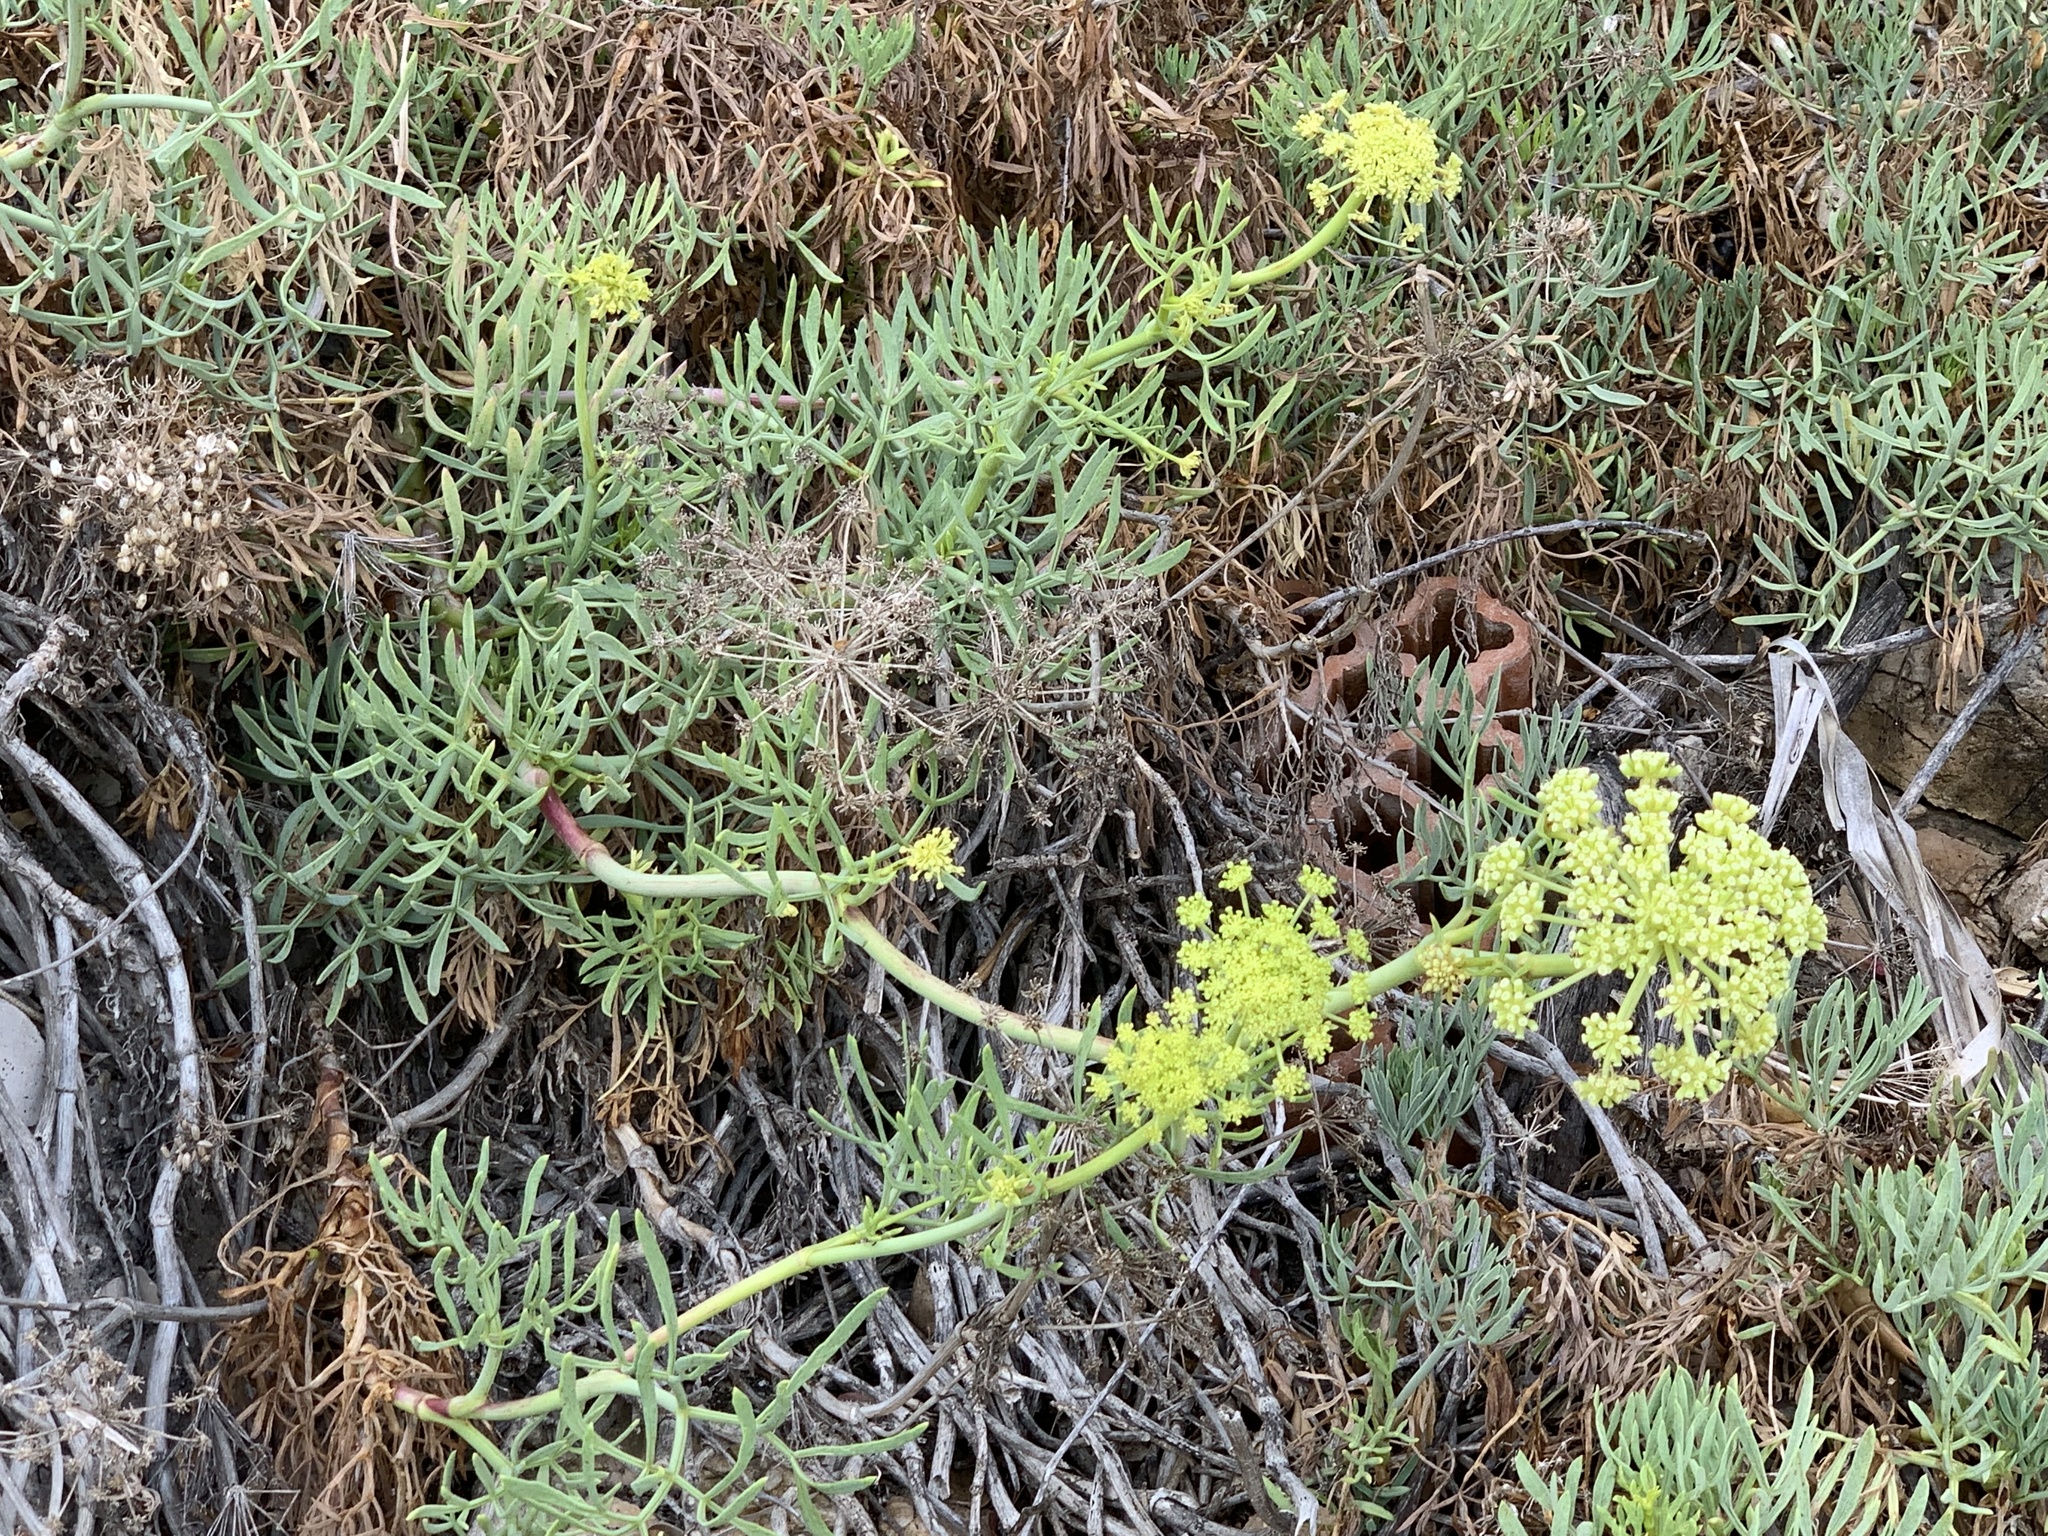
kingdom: Plantae
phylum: Tracheophyta
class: Magnoliopsida
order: Apiales
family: Apiaceae
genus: Crithmum
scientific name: Crithmum maritimum
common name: Rock samphire
